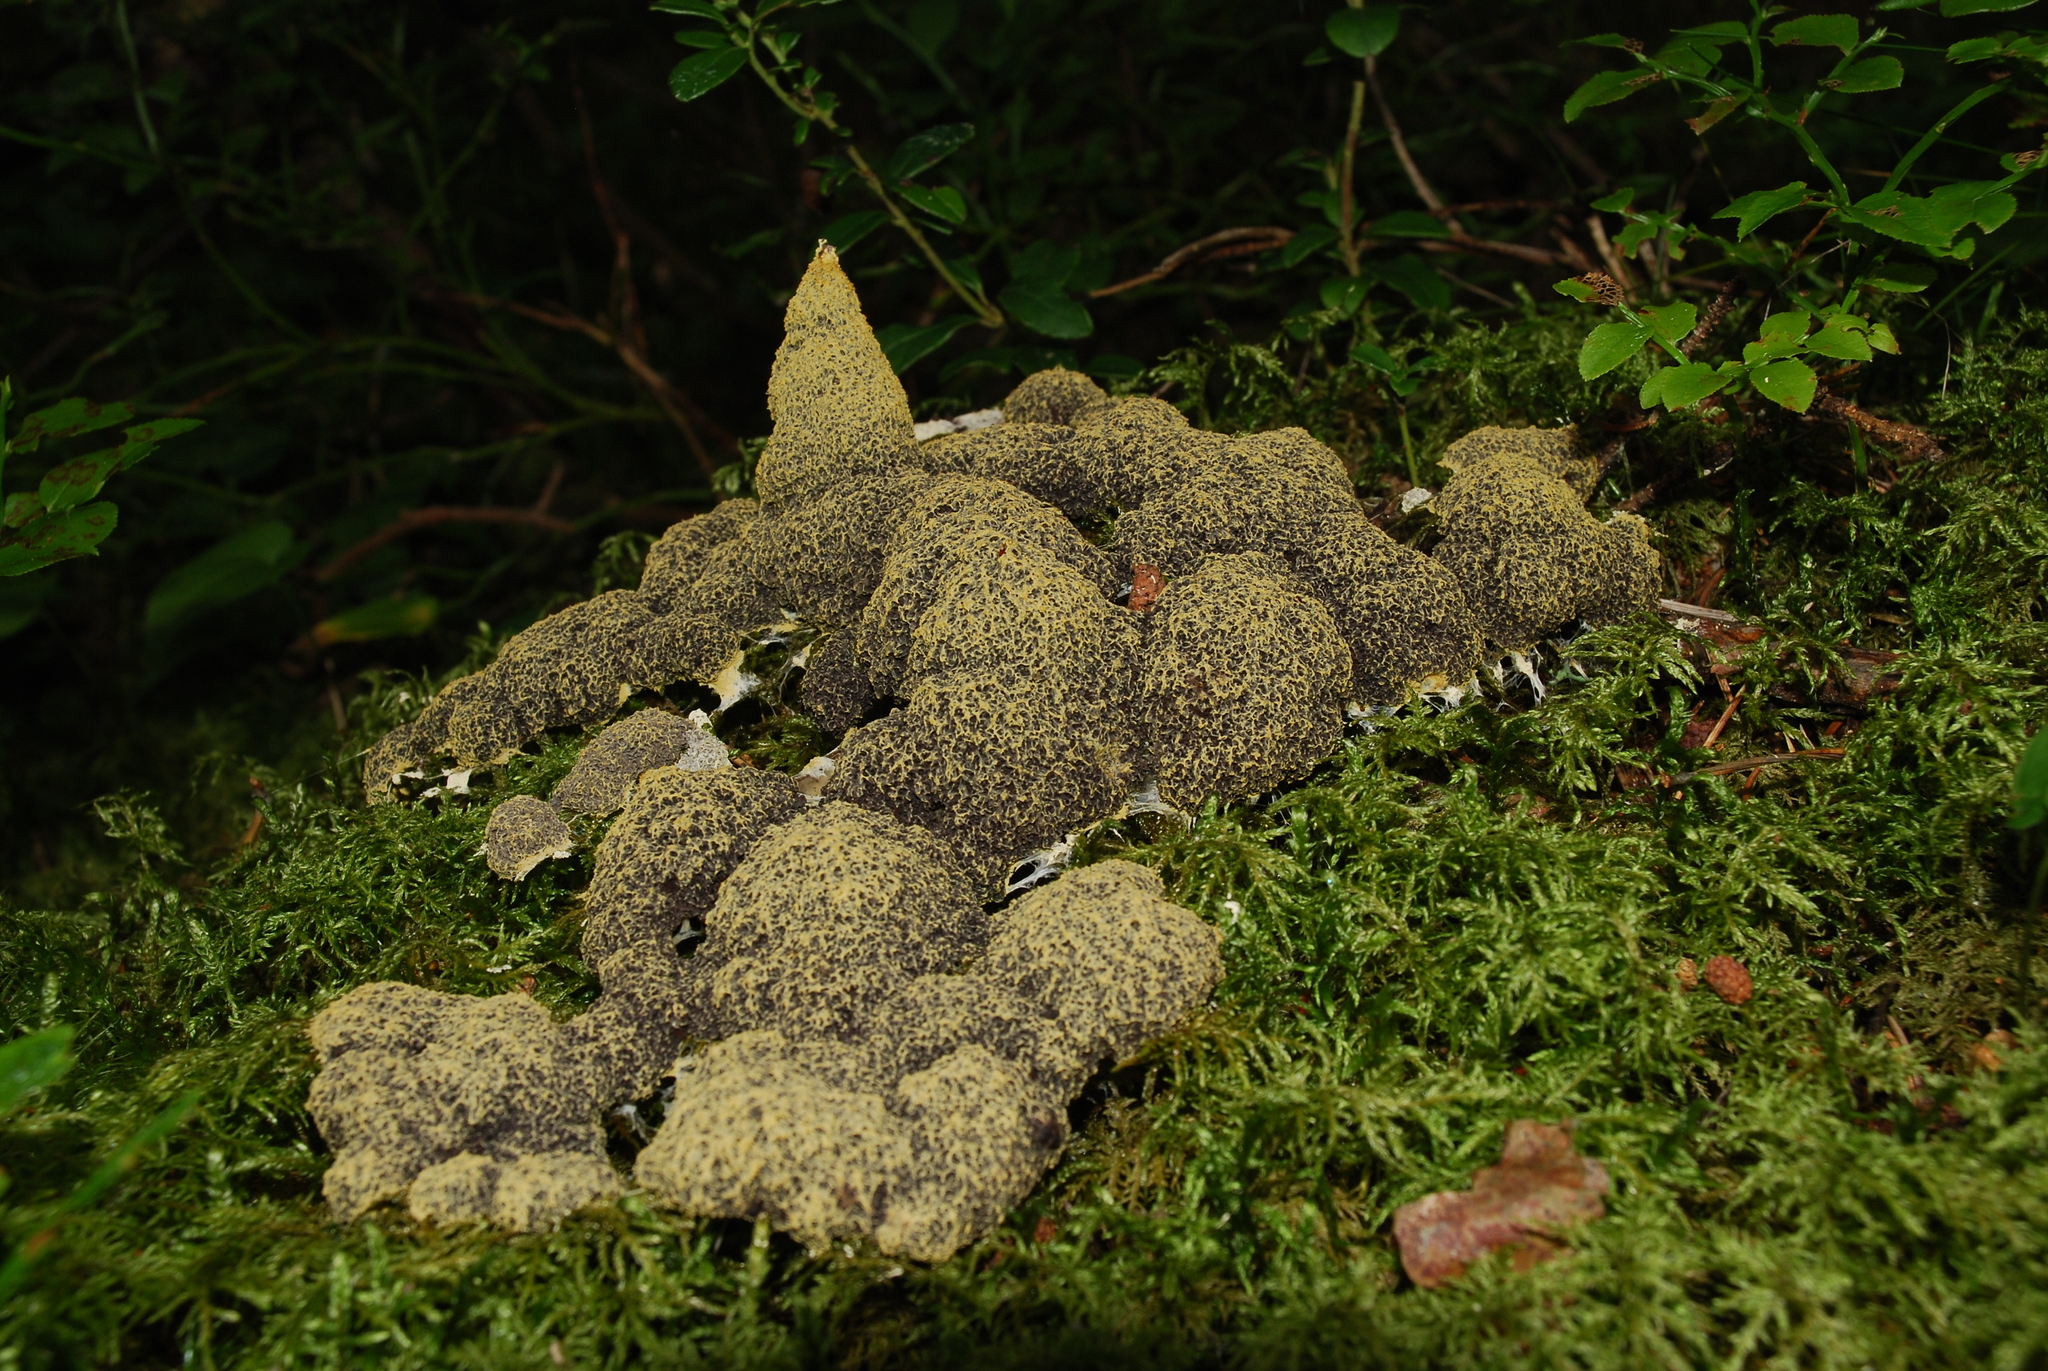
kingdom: Protozoa
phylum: Mycetozoa
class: Myxomycetes
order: Physarales
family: Physaraceae
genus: Fuligo
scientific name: Fuligo septica
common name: Dog vomit slime mold
